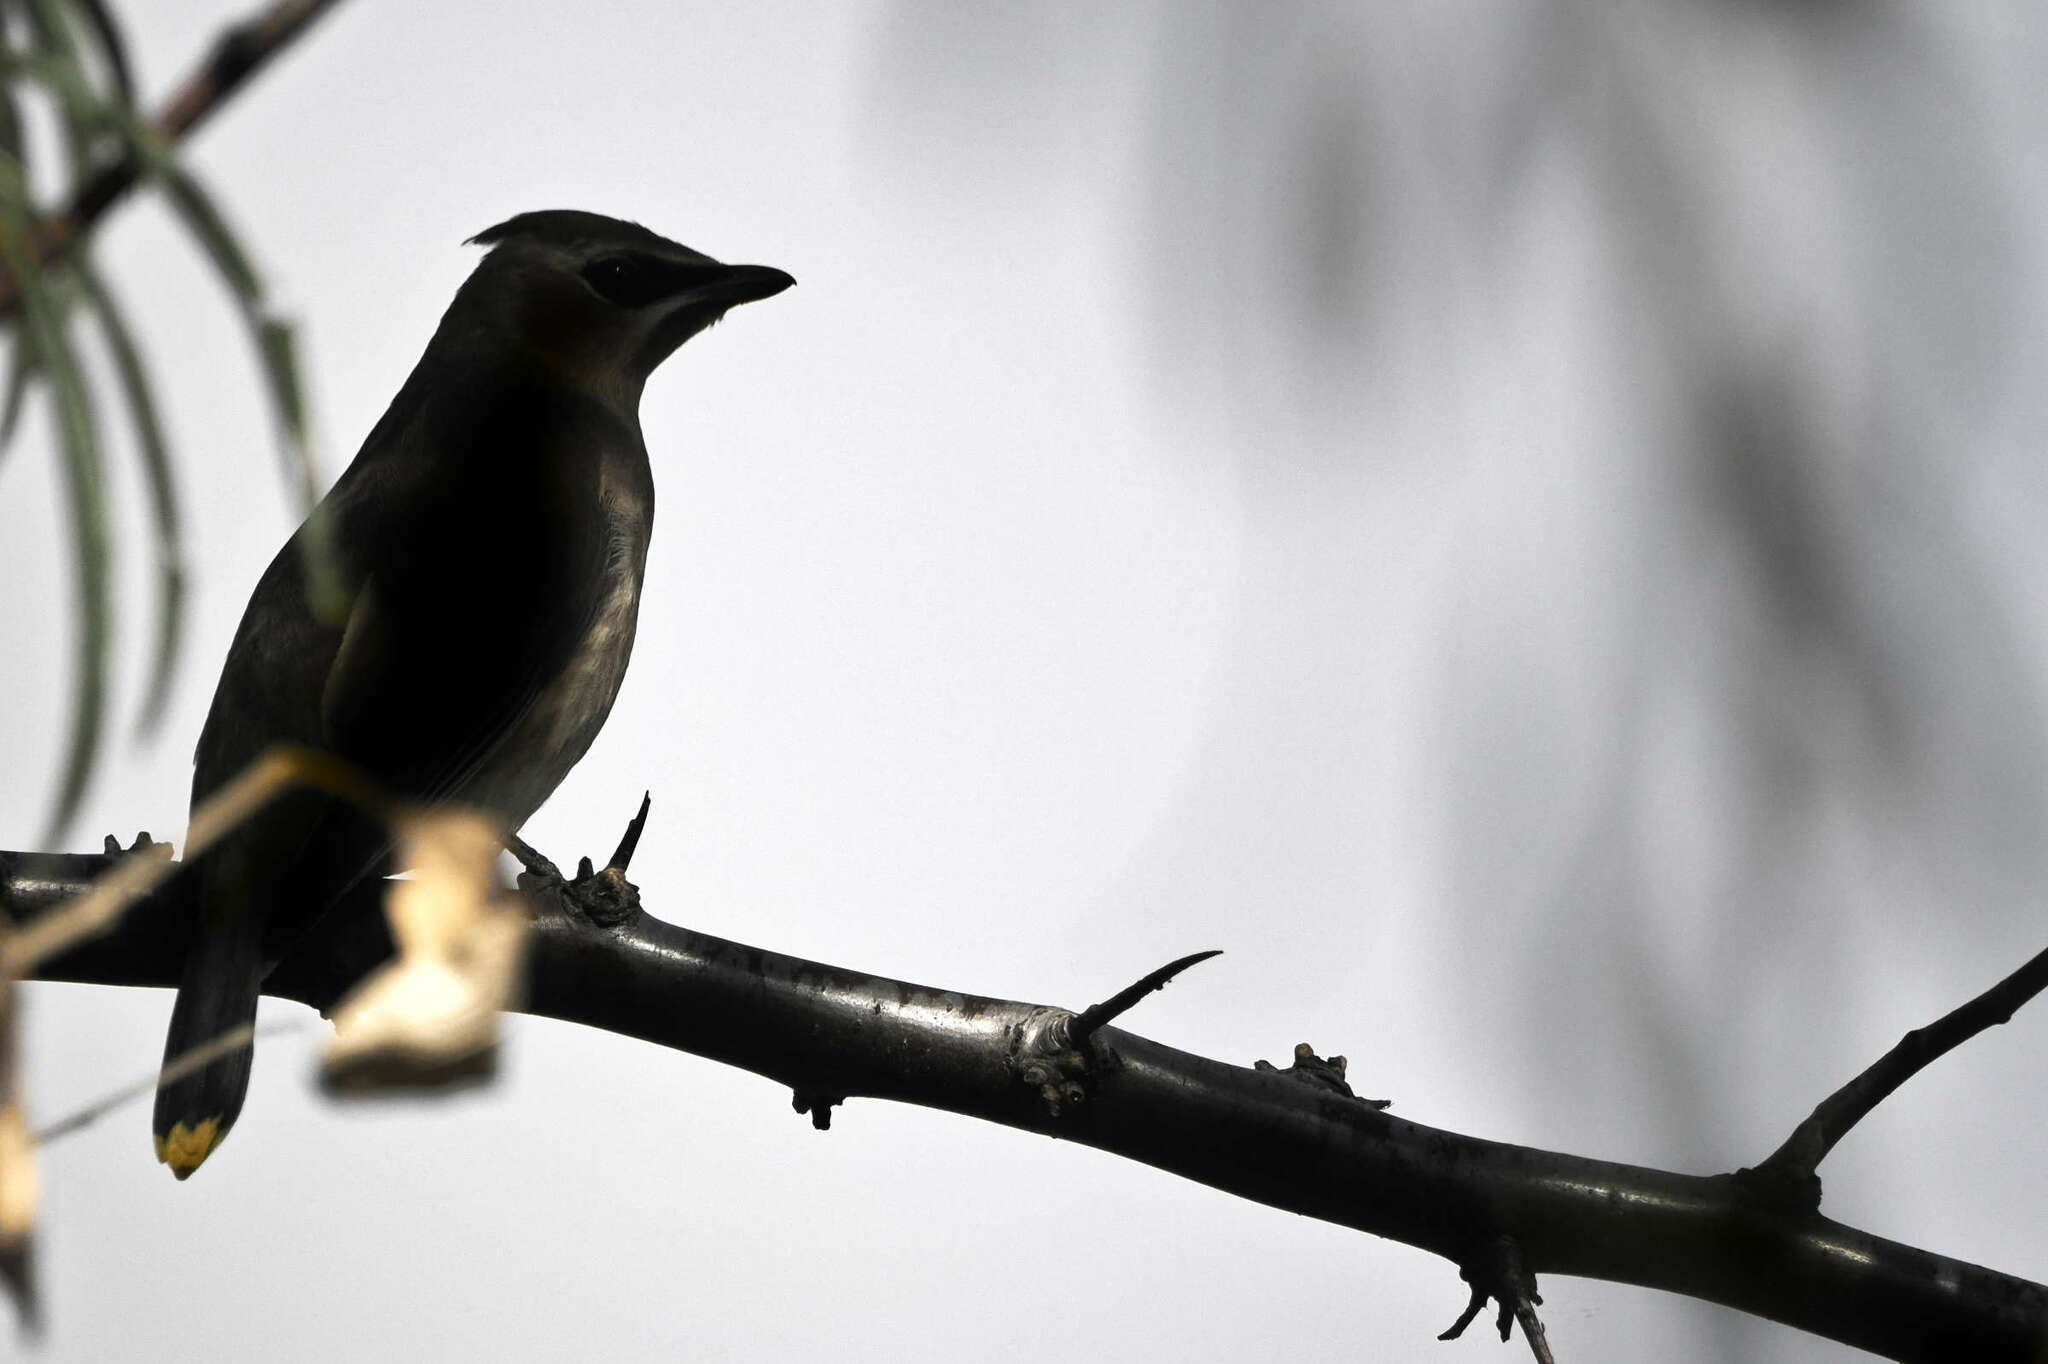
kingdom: Animalia
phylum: Chordata
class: Aves
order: Passeriformes
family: Bombycillidae
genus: Bombycilla
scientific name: Bombycilla cedrorum
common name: Cedar waxwing
